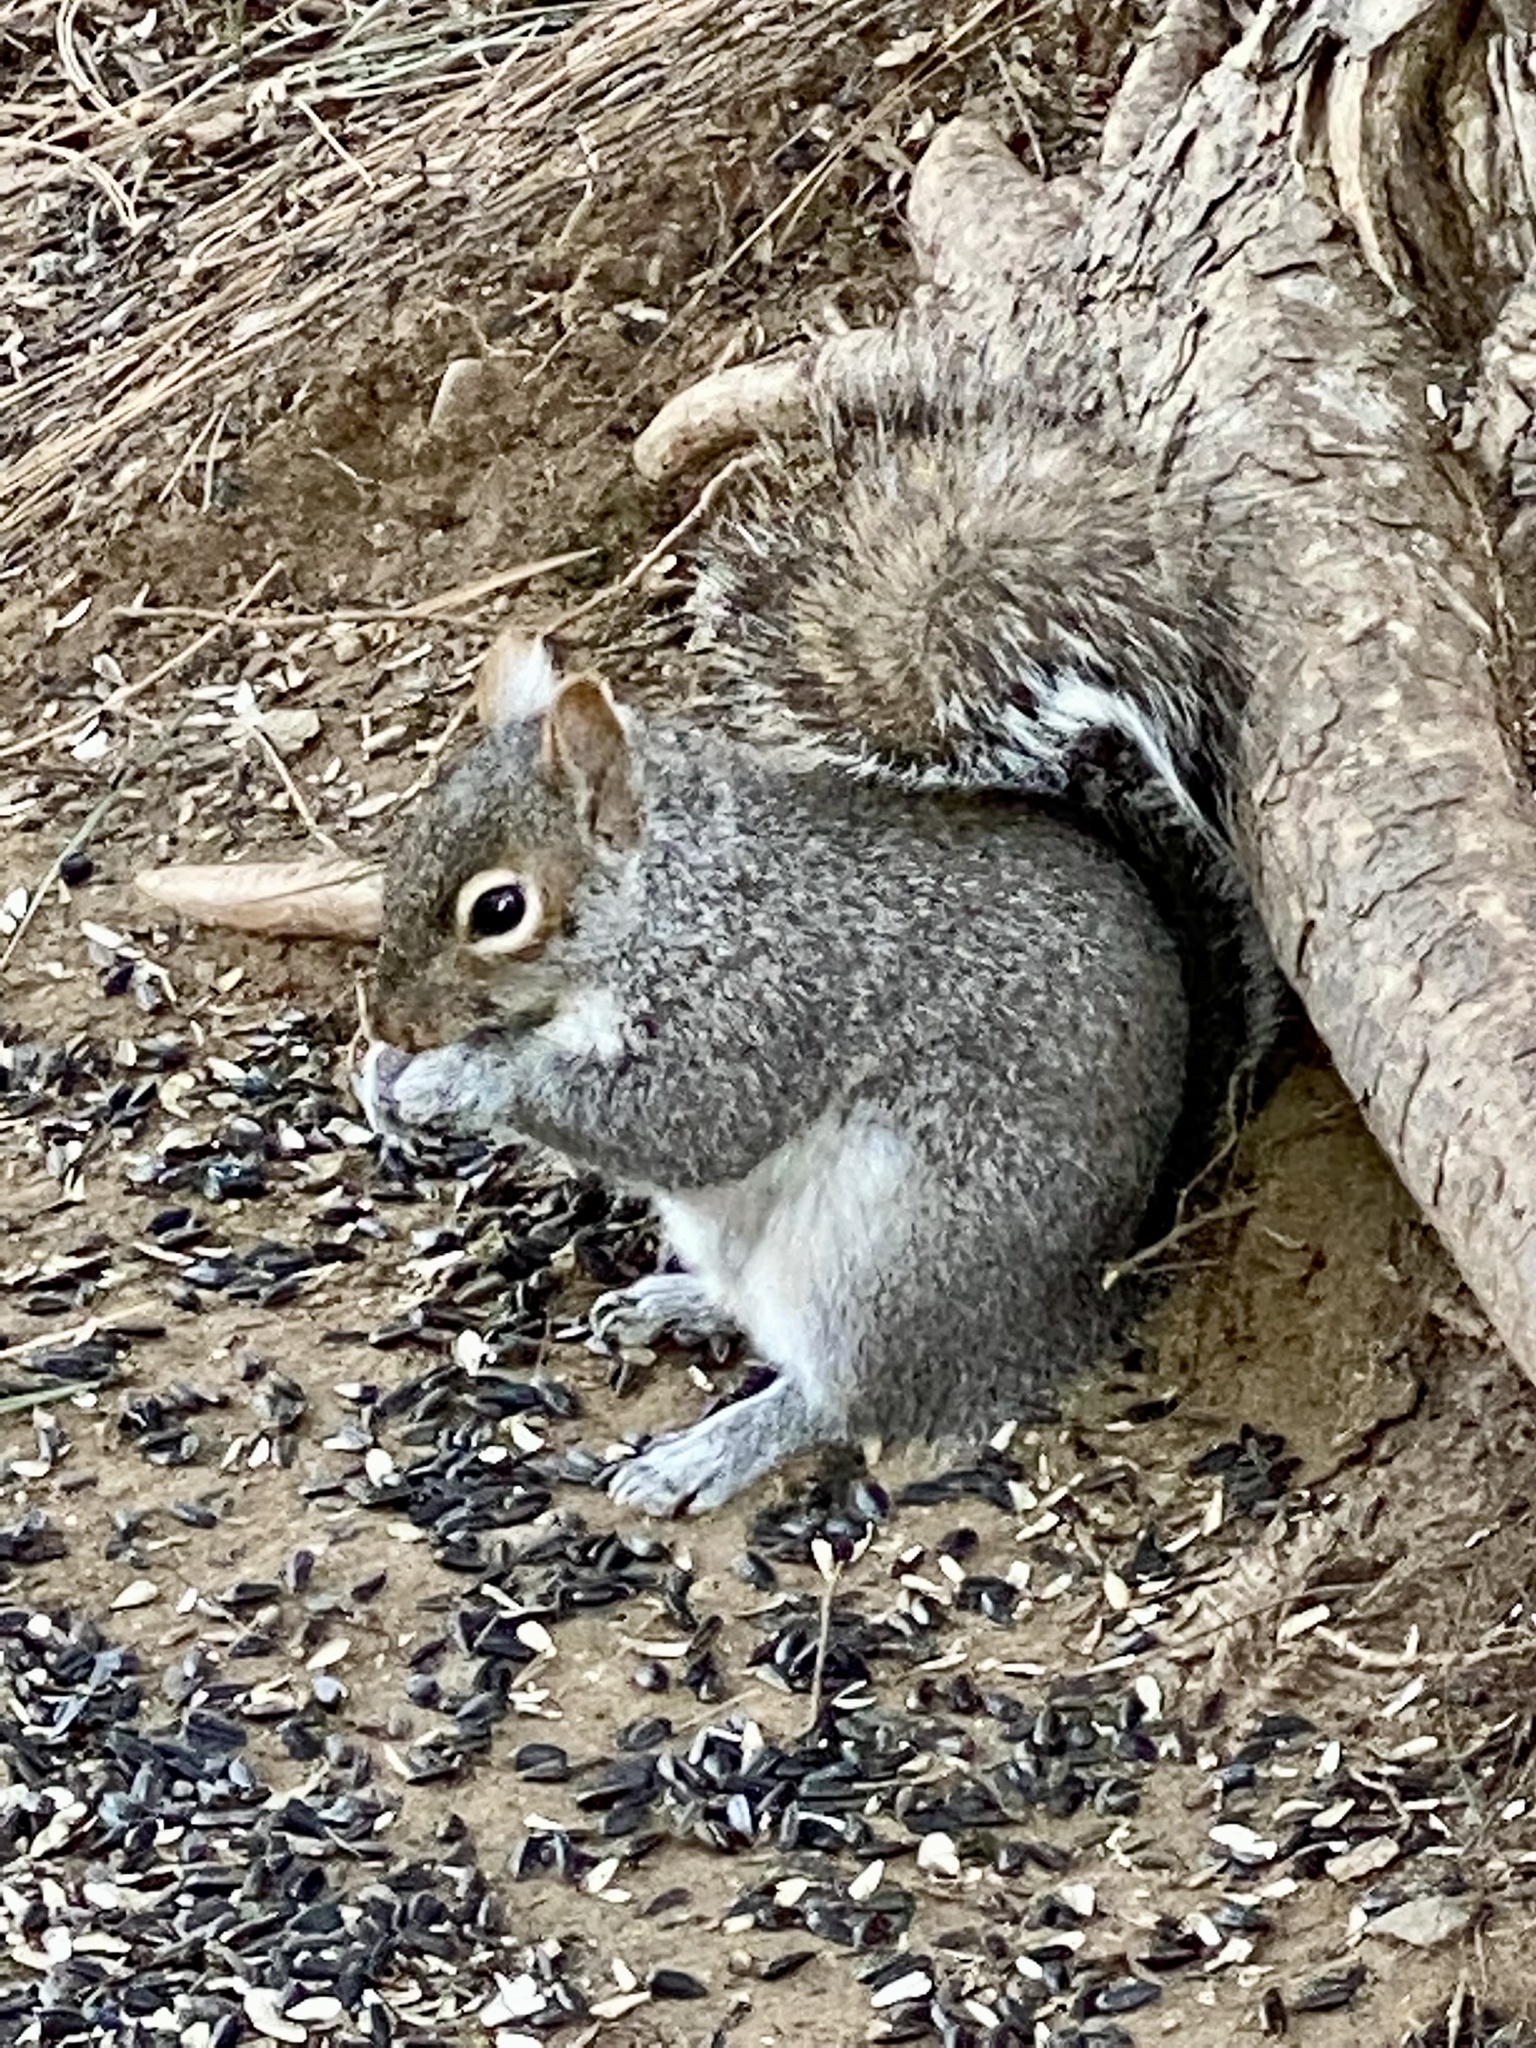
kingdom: Animalia
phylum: Chordata
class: Mammalia
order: Rodentia
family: Sciuridae
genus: Sciurus
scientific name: Sciurus carolinensis
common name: Eastern gray squirrel
